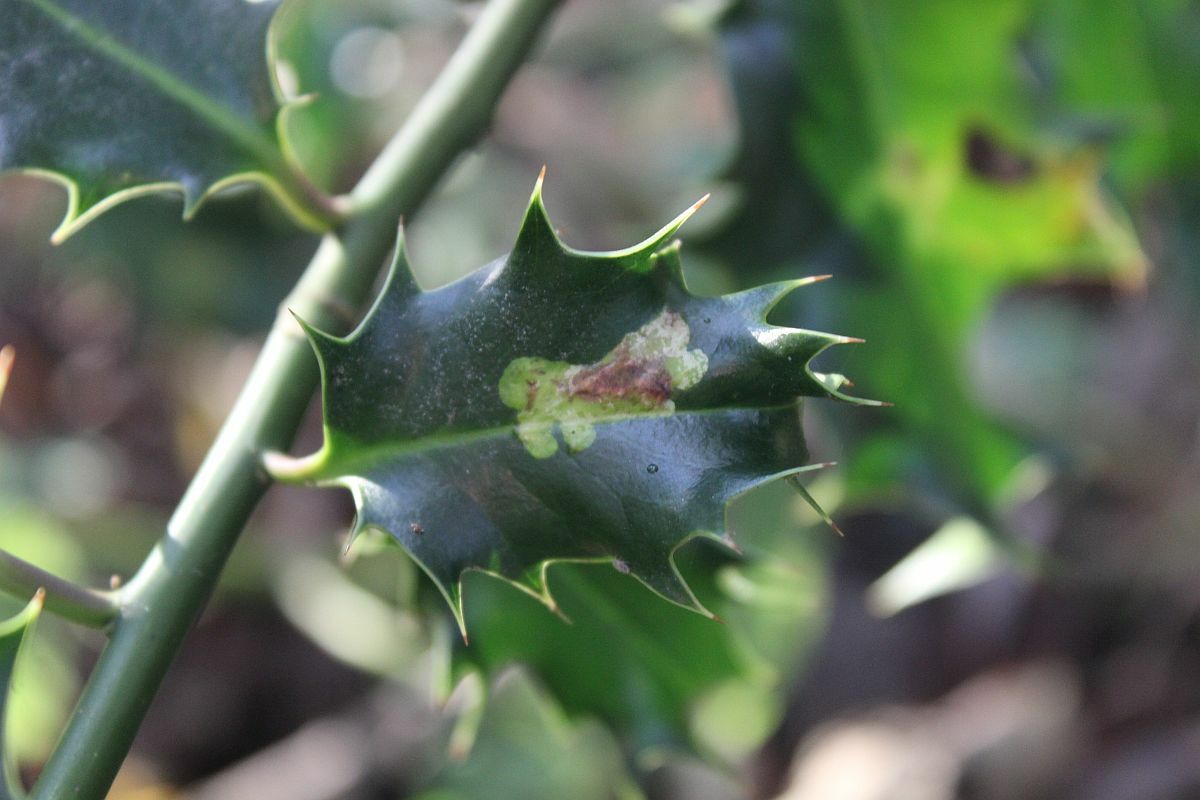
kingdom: Animalia
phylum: Arthropoda
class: Insecta
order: Diptera
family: Agromyzidae
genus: Phytomyza
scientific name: Phytomyza ilicis
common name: Holly leafminer
